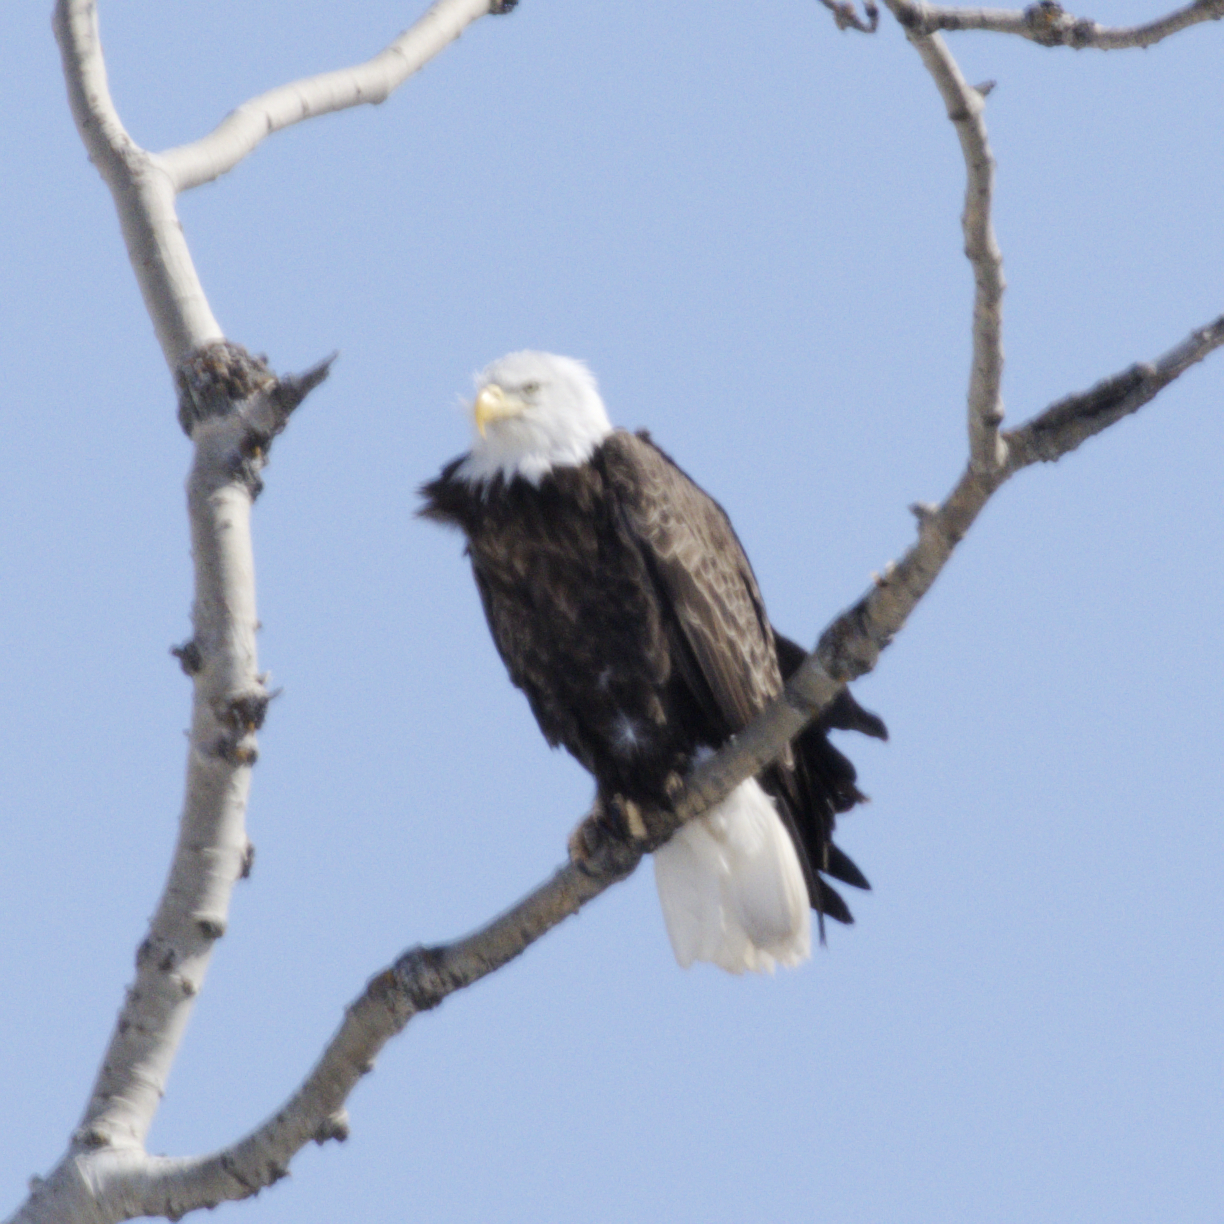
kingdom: Animalia
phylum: Chordata
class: Aves
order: Accipitriformes
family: Accipitridae
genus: Haliaeetus
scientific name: Haliaeetus leucocephalus
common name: Bald eagle
